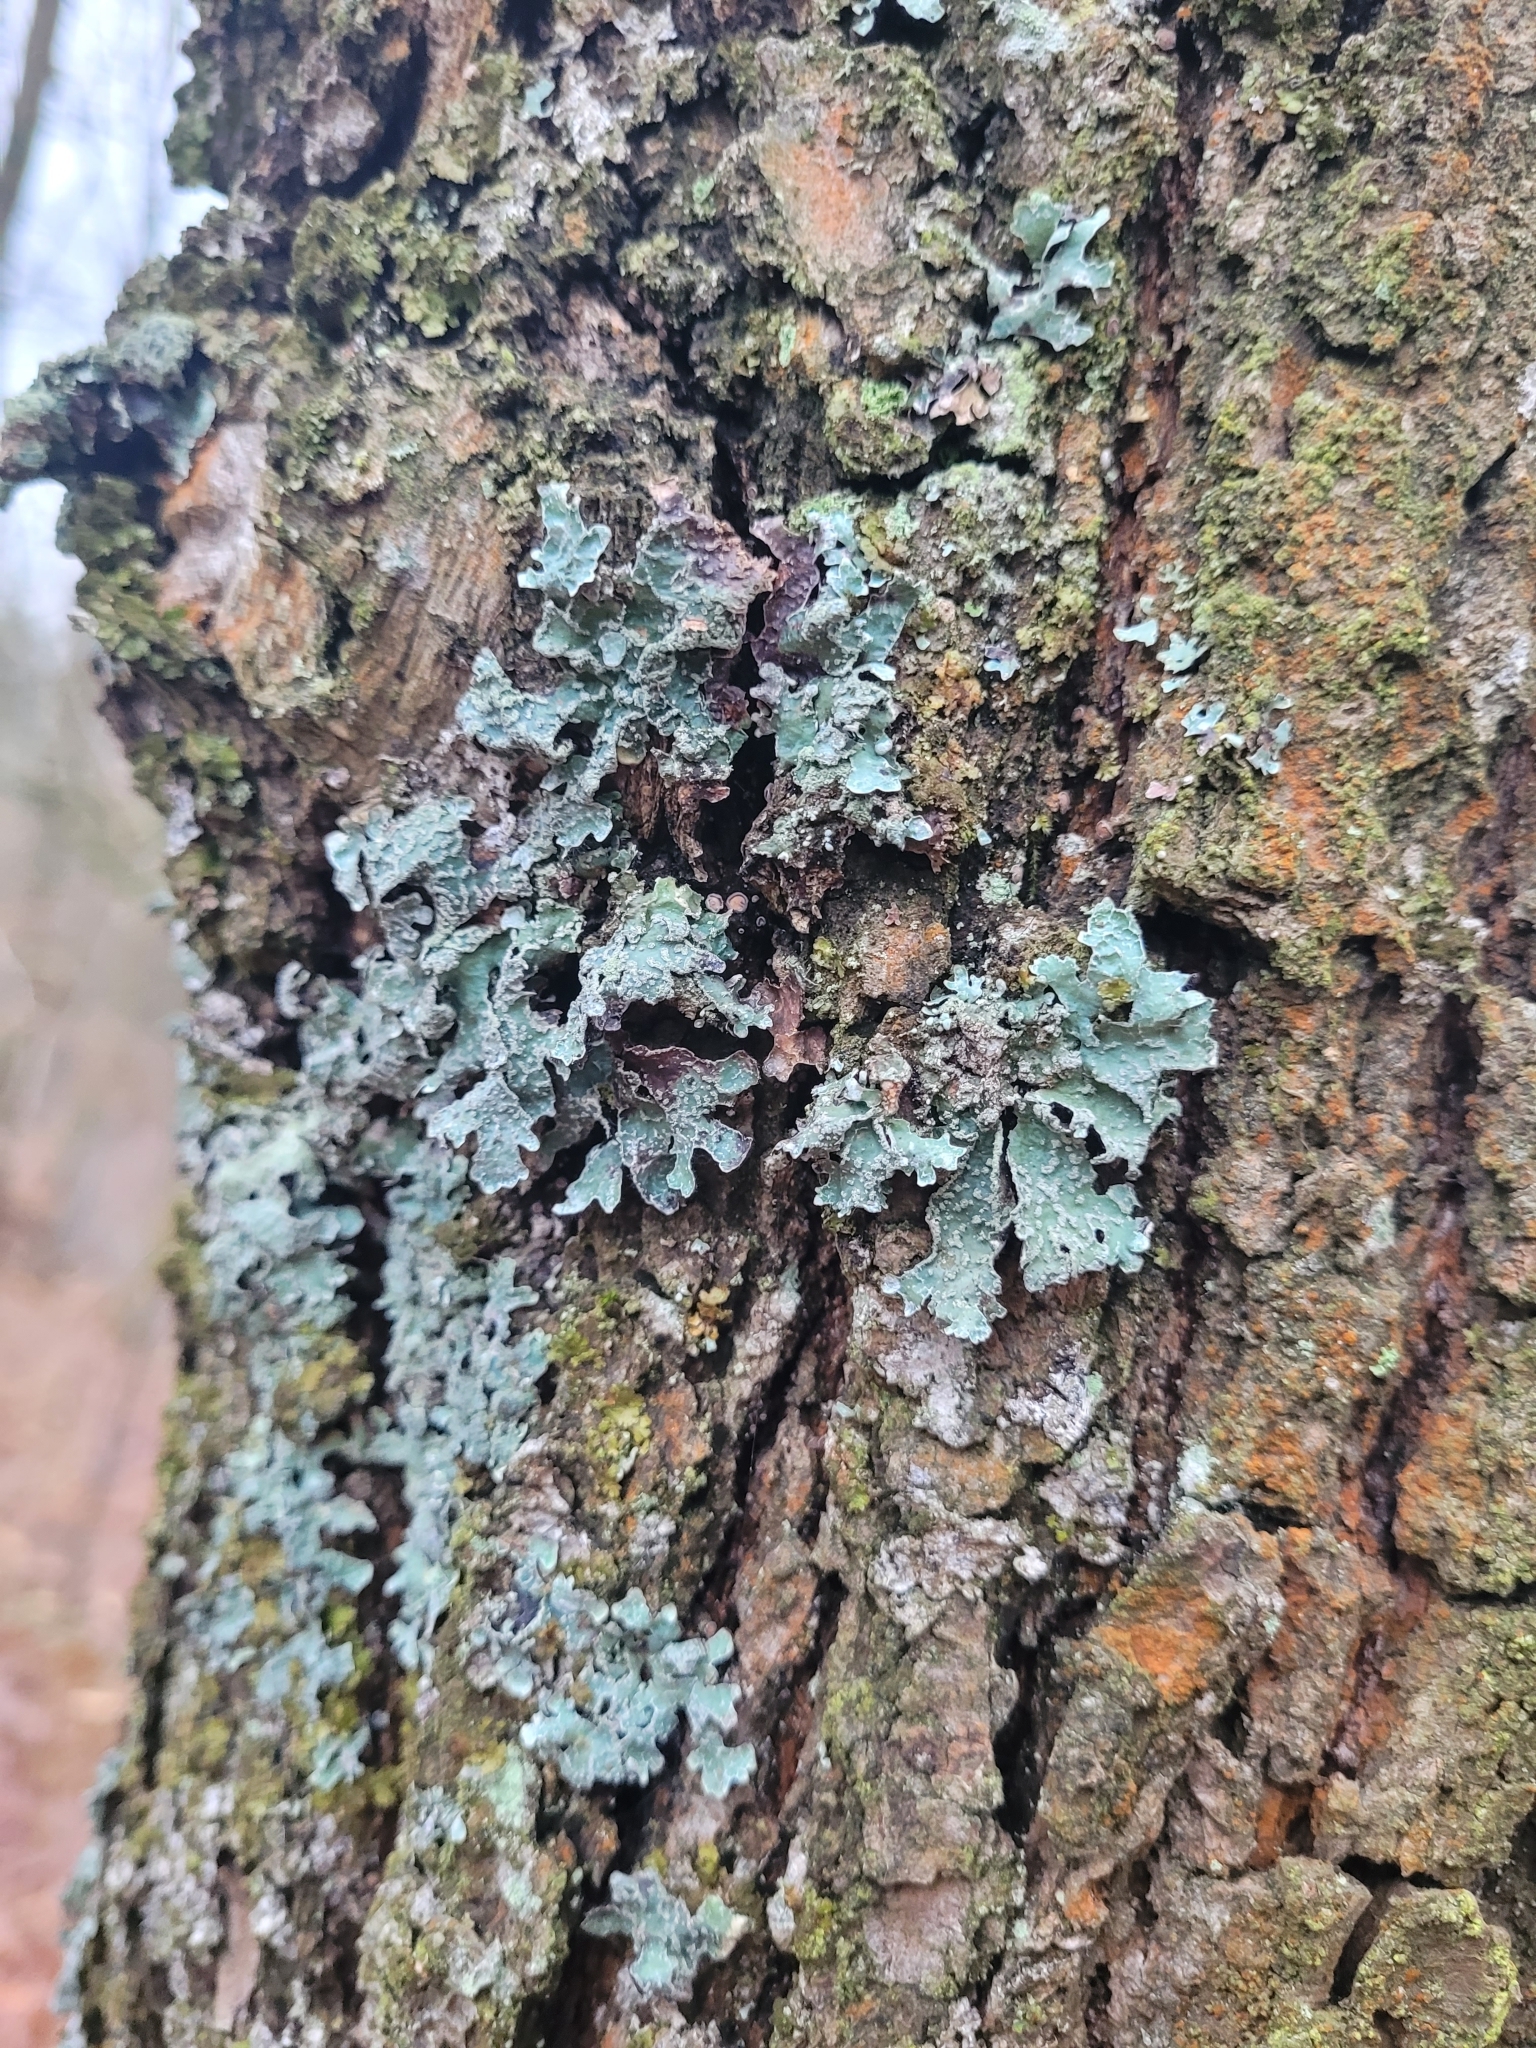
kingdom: Fungi
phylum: Ascomycota
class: Lecanoromycetes
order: Lecanorales
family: Parmeliaceae
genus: Parmelia
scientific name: Parmelia sulcata
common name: Netted shield lichen
